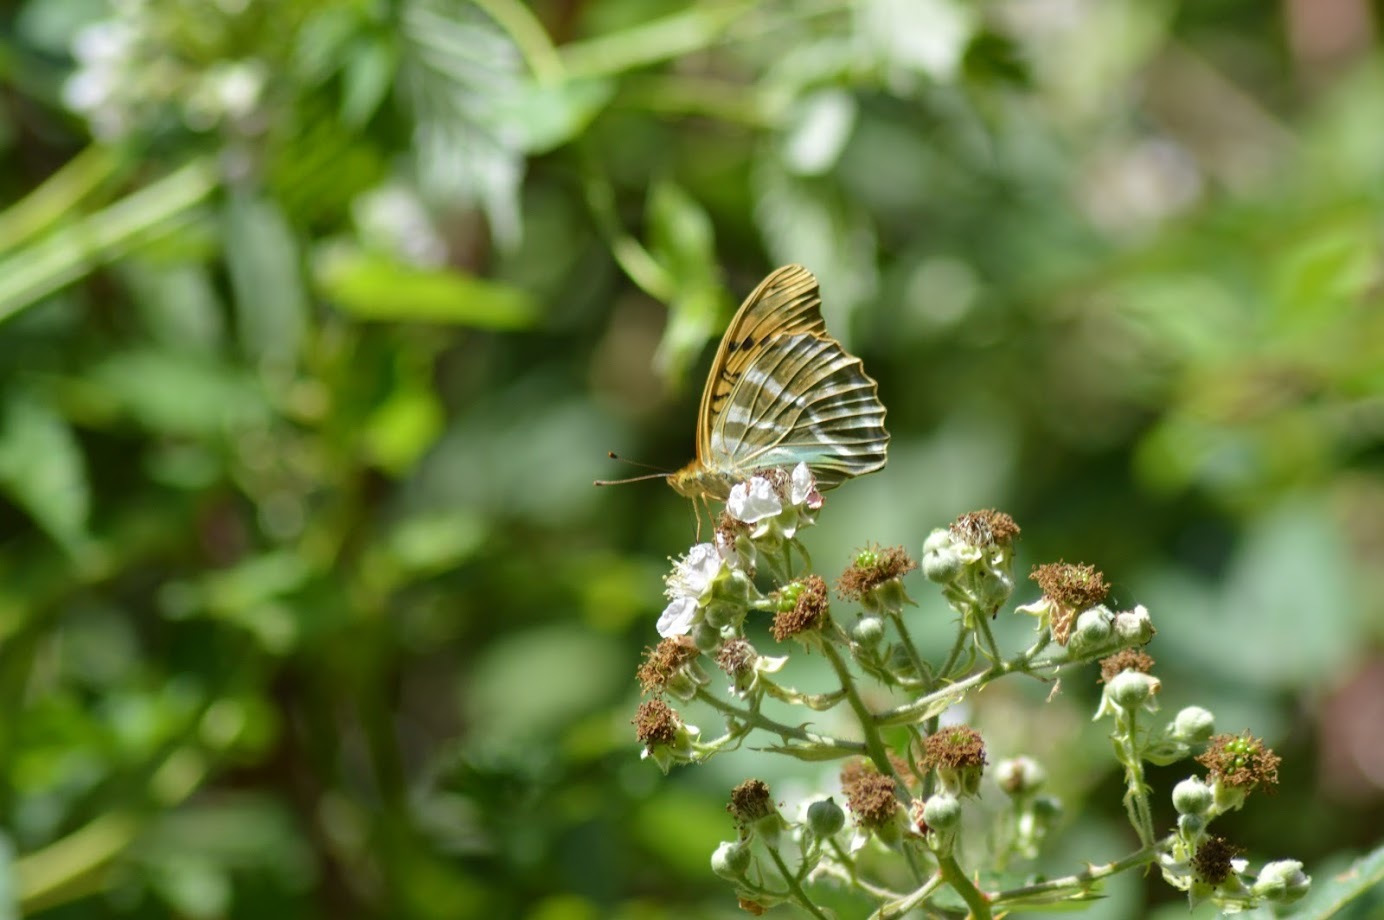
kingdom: Animalia
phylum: Arthropoda
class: Insecta
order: Lepidoptera
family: Nymphalidae
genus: Argynnis
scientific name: Argynnis paphia
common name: Silver-washed fritillary
